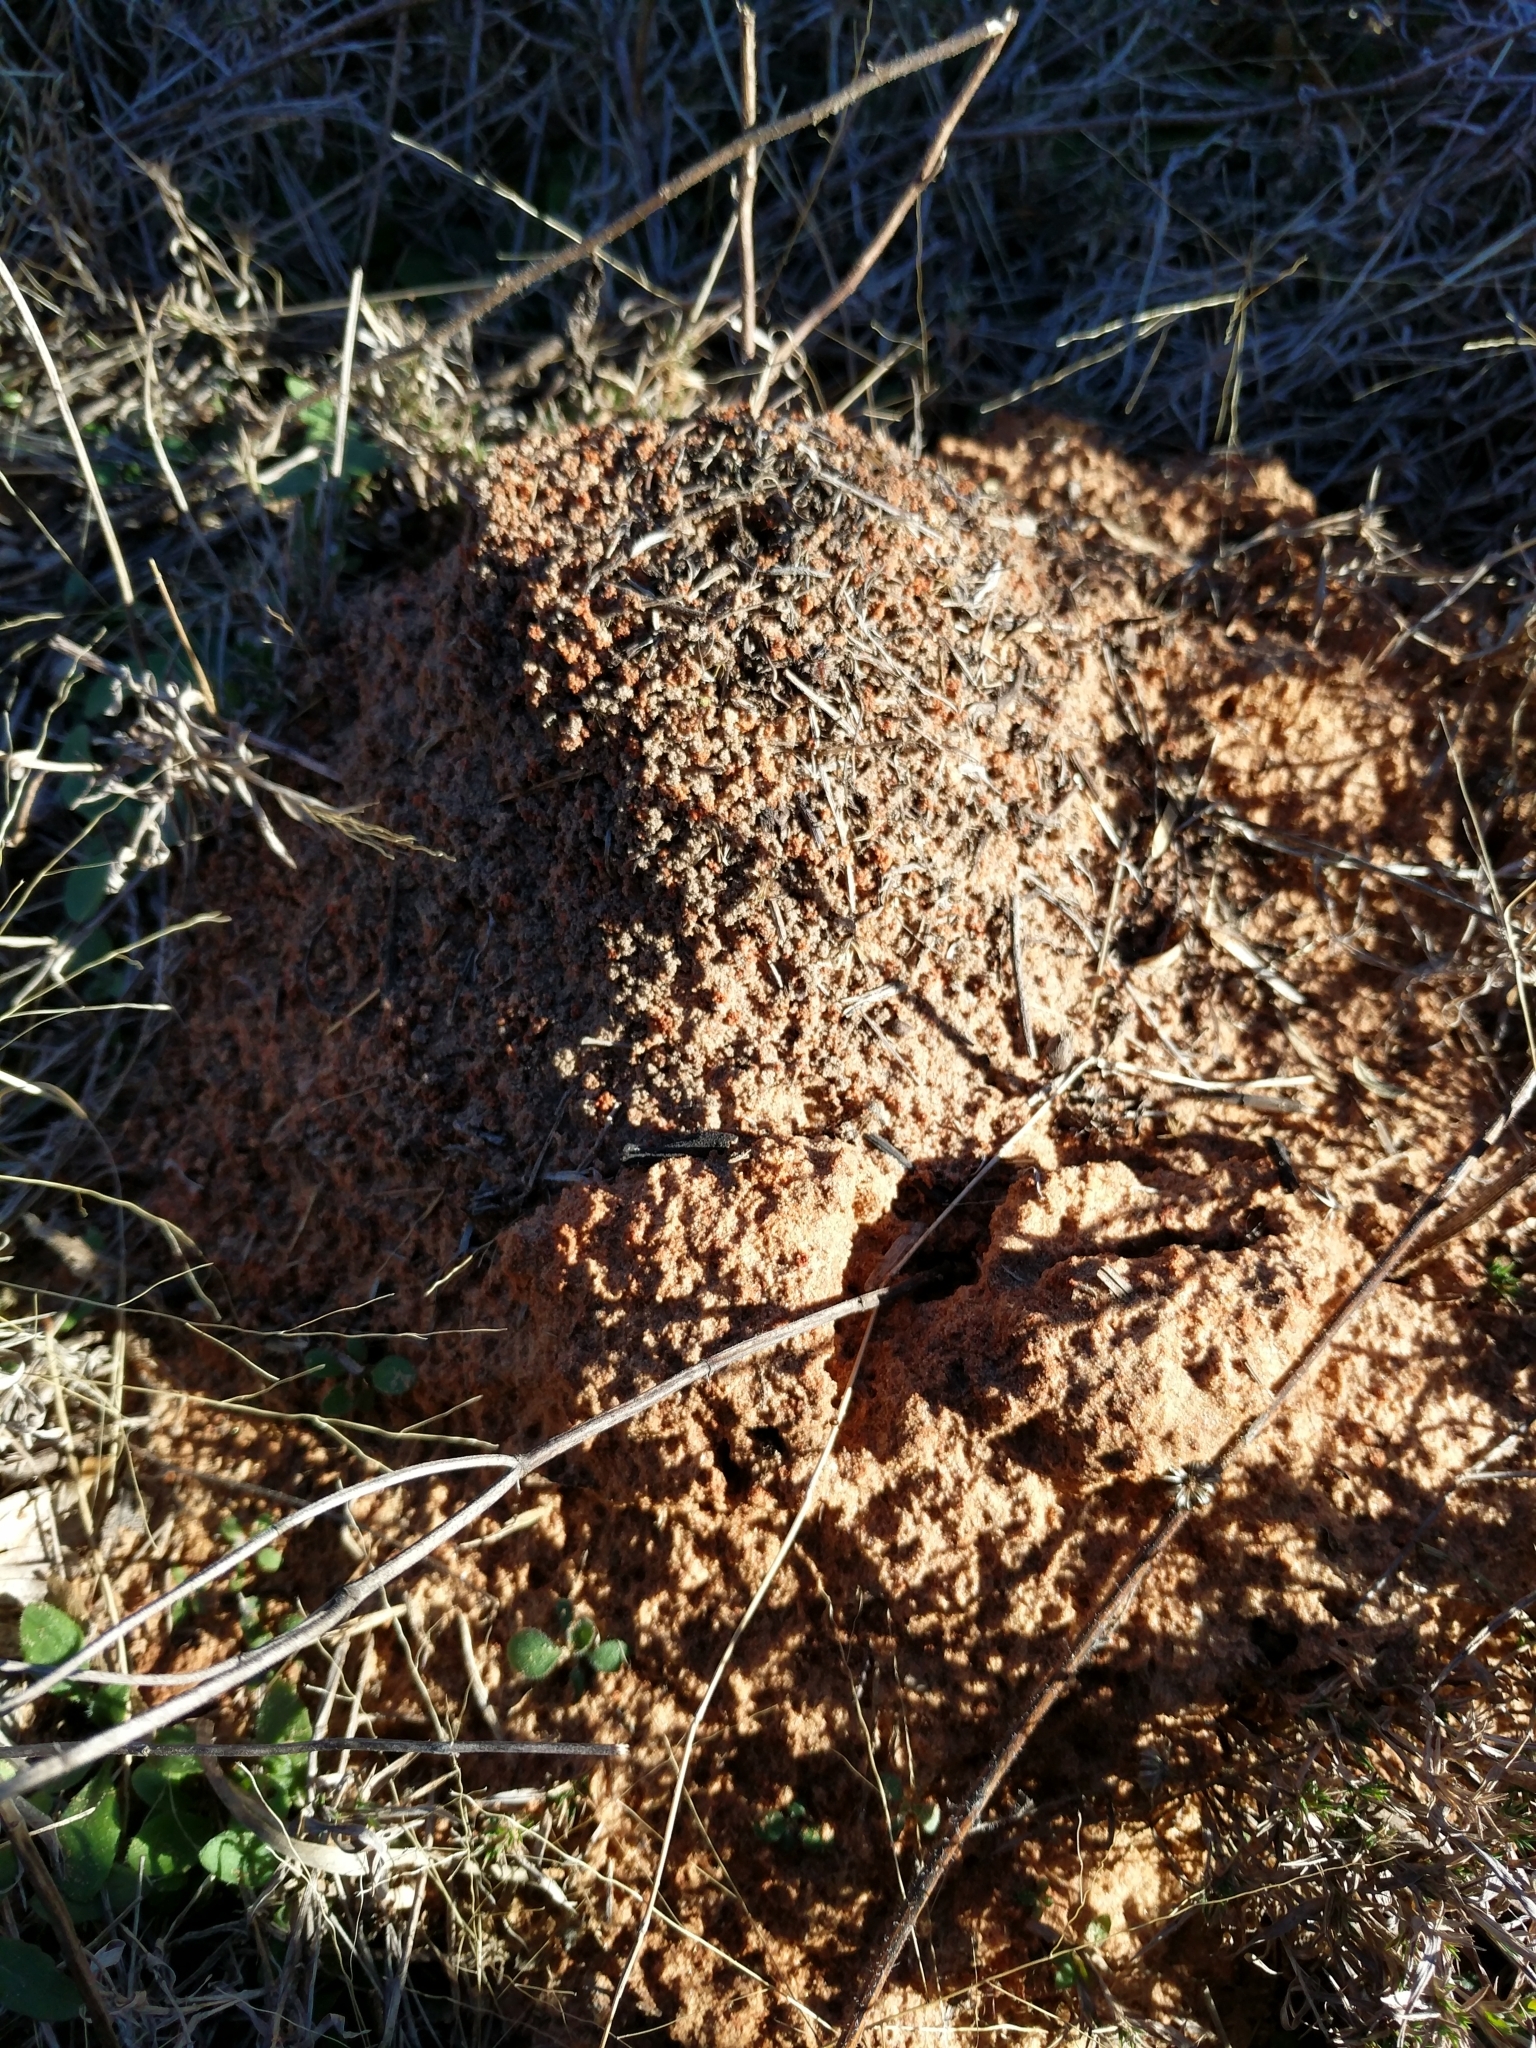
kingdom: Animalia
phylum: Arthropoda
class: Insecta
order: Hymenoptera
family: Formicidae
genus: Atta
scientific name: Atta texana
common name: Texas leafcutting ant
